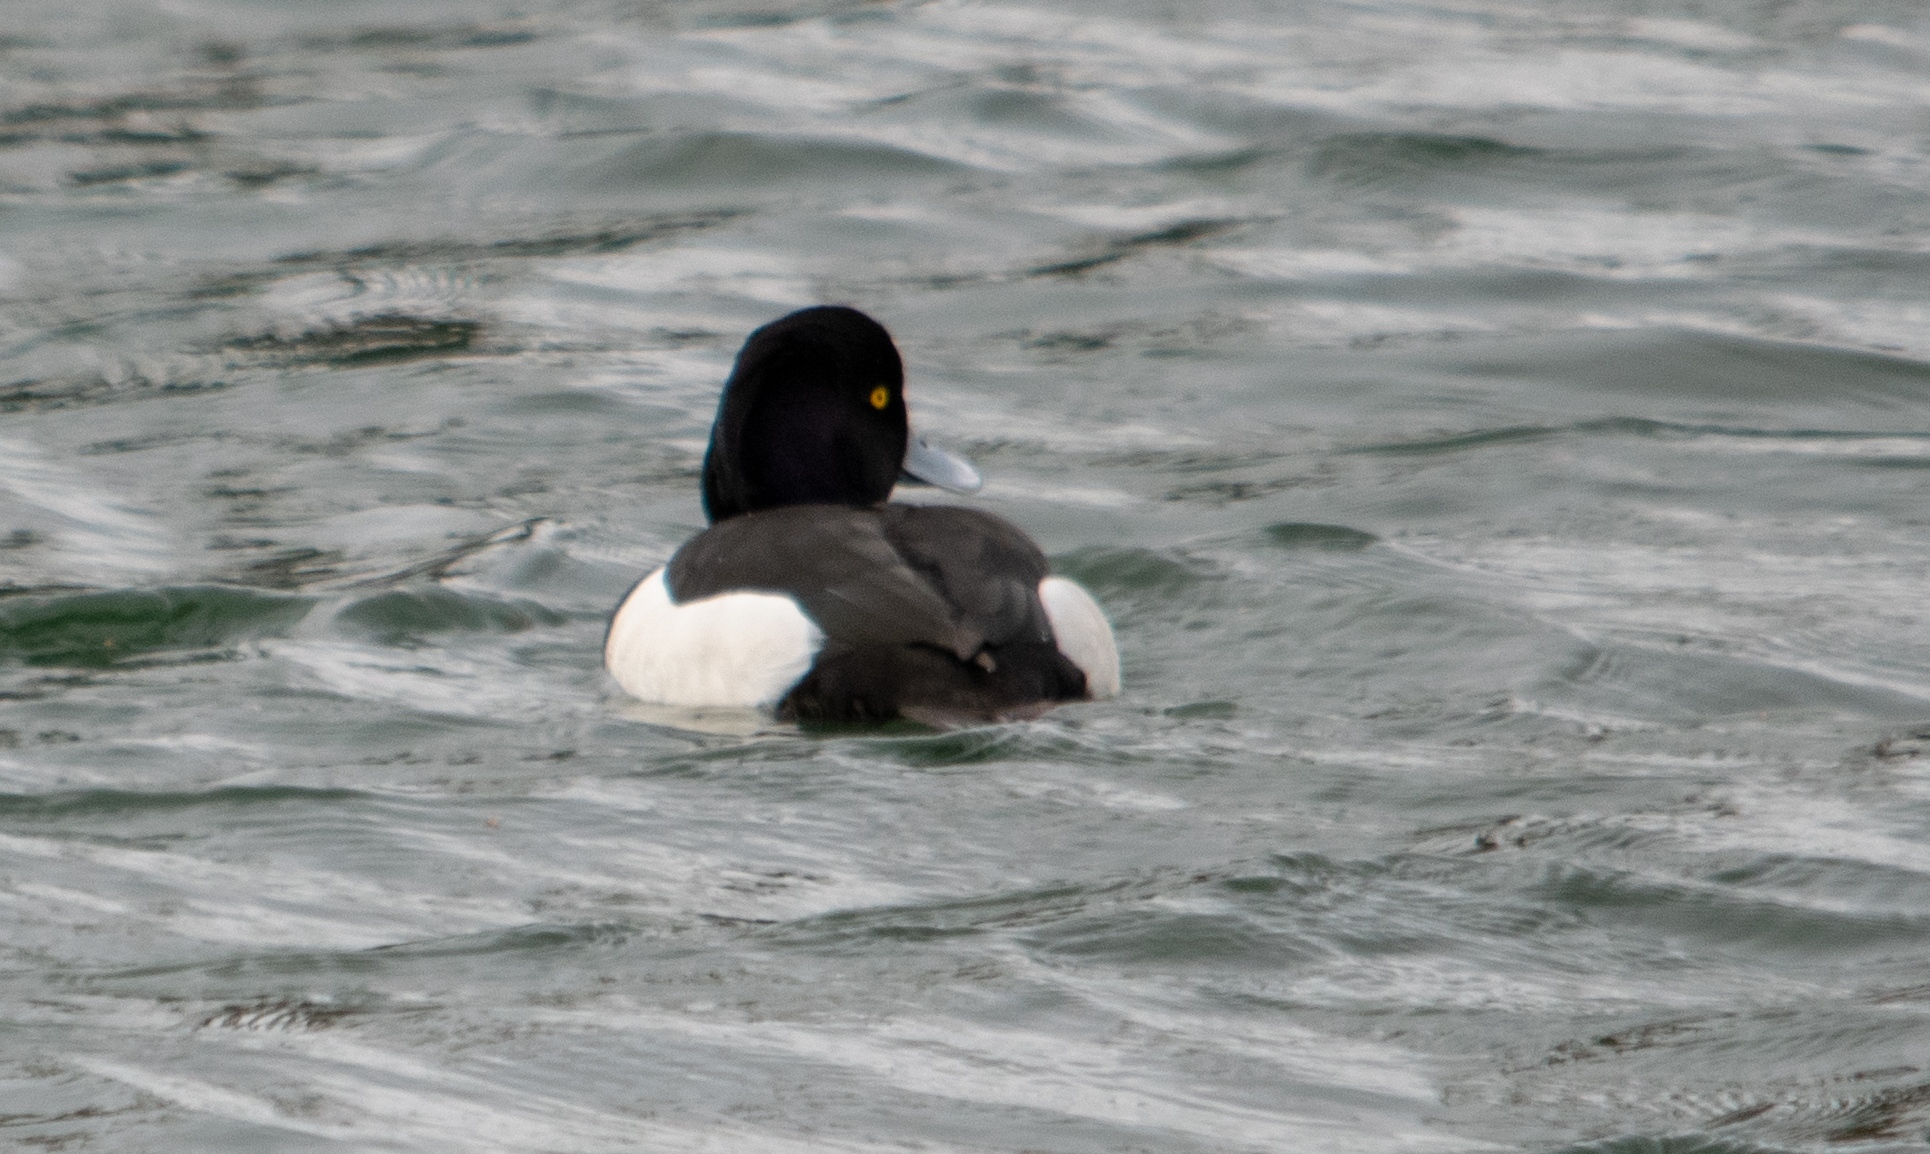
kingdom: Animalia
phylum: Chordata
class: Aves
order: Anseriformes
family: Anatidae
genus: Aythya
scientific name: Aythya fuligula
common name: Tufted duck
